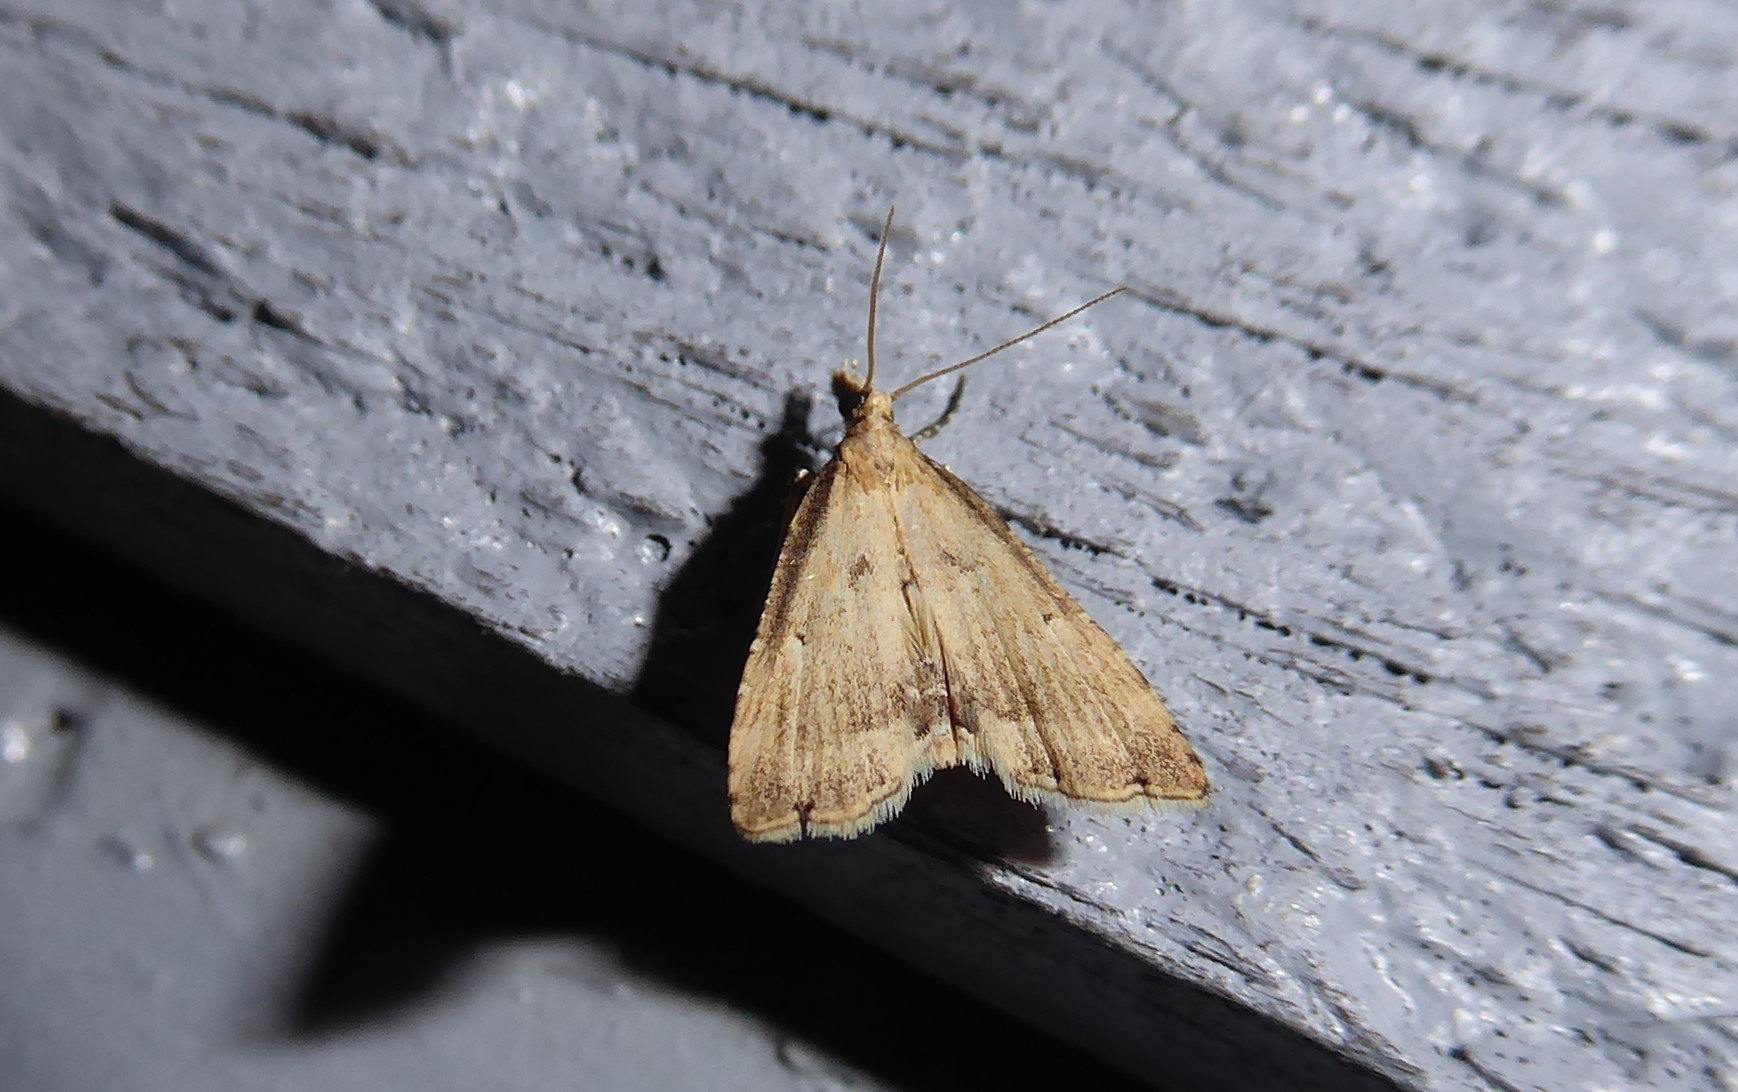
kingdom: Animalia
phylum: Arthropoda
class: Insecta
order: Lepidoptera
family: Crambidae
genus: Diplopseustis
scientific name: Diplopseustis perieresalis
